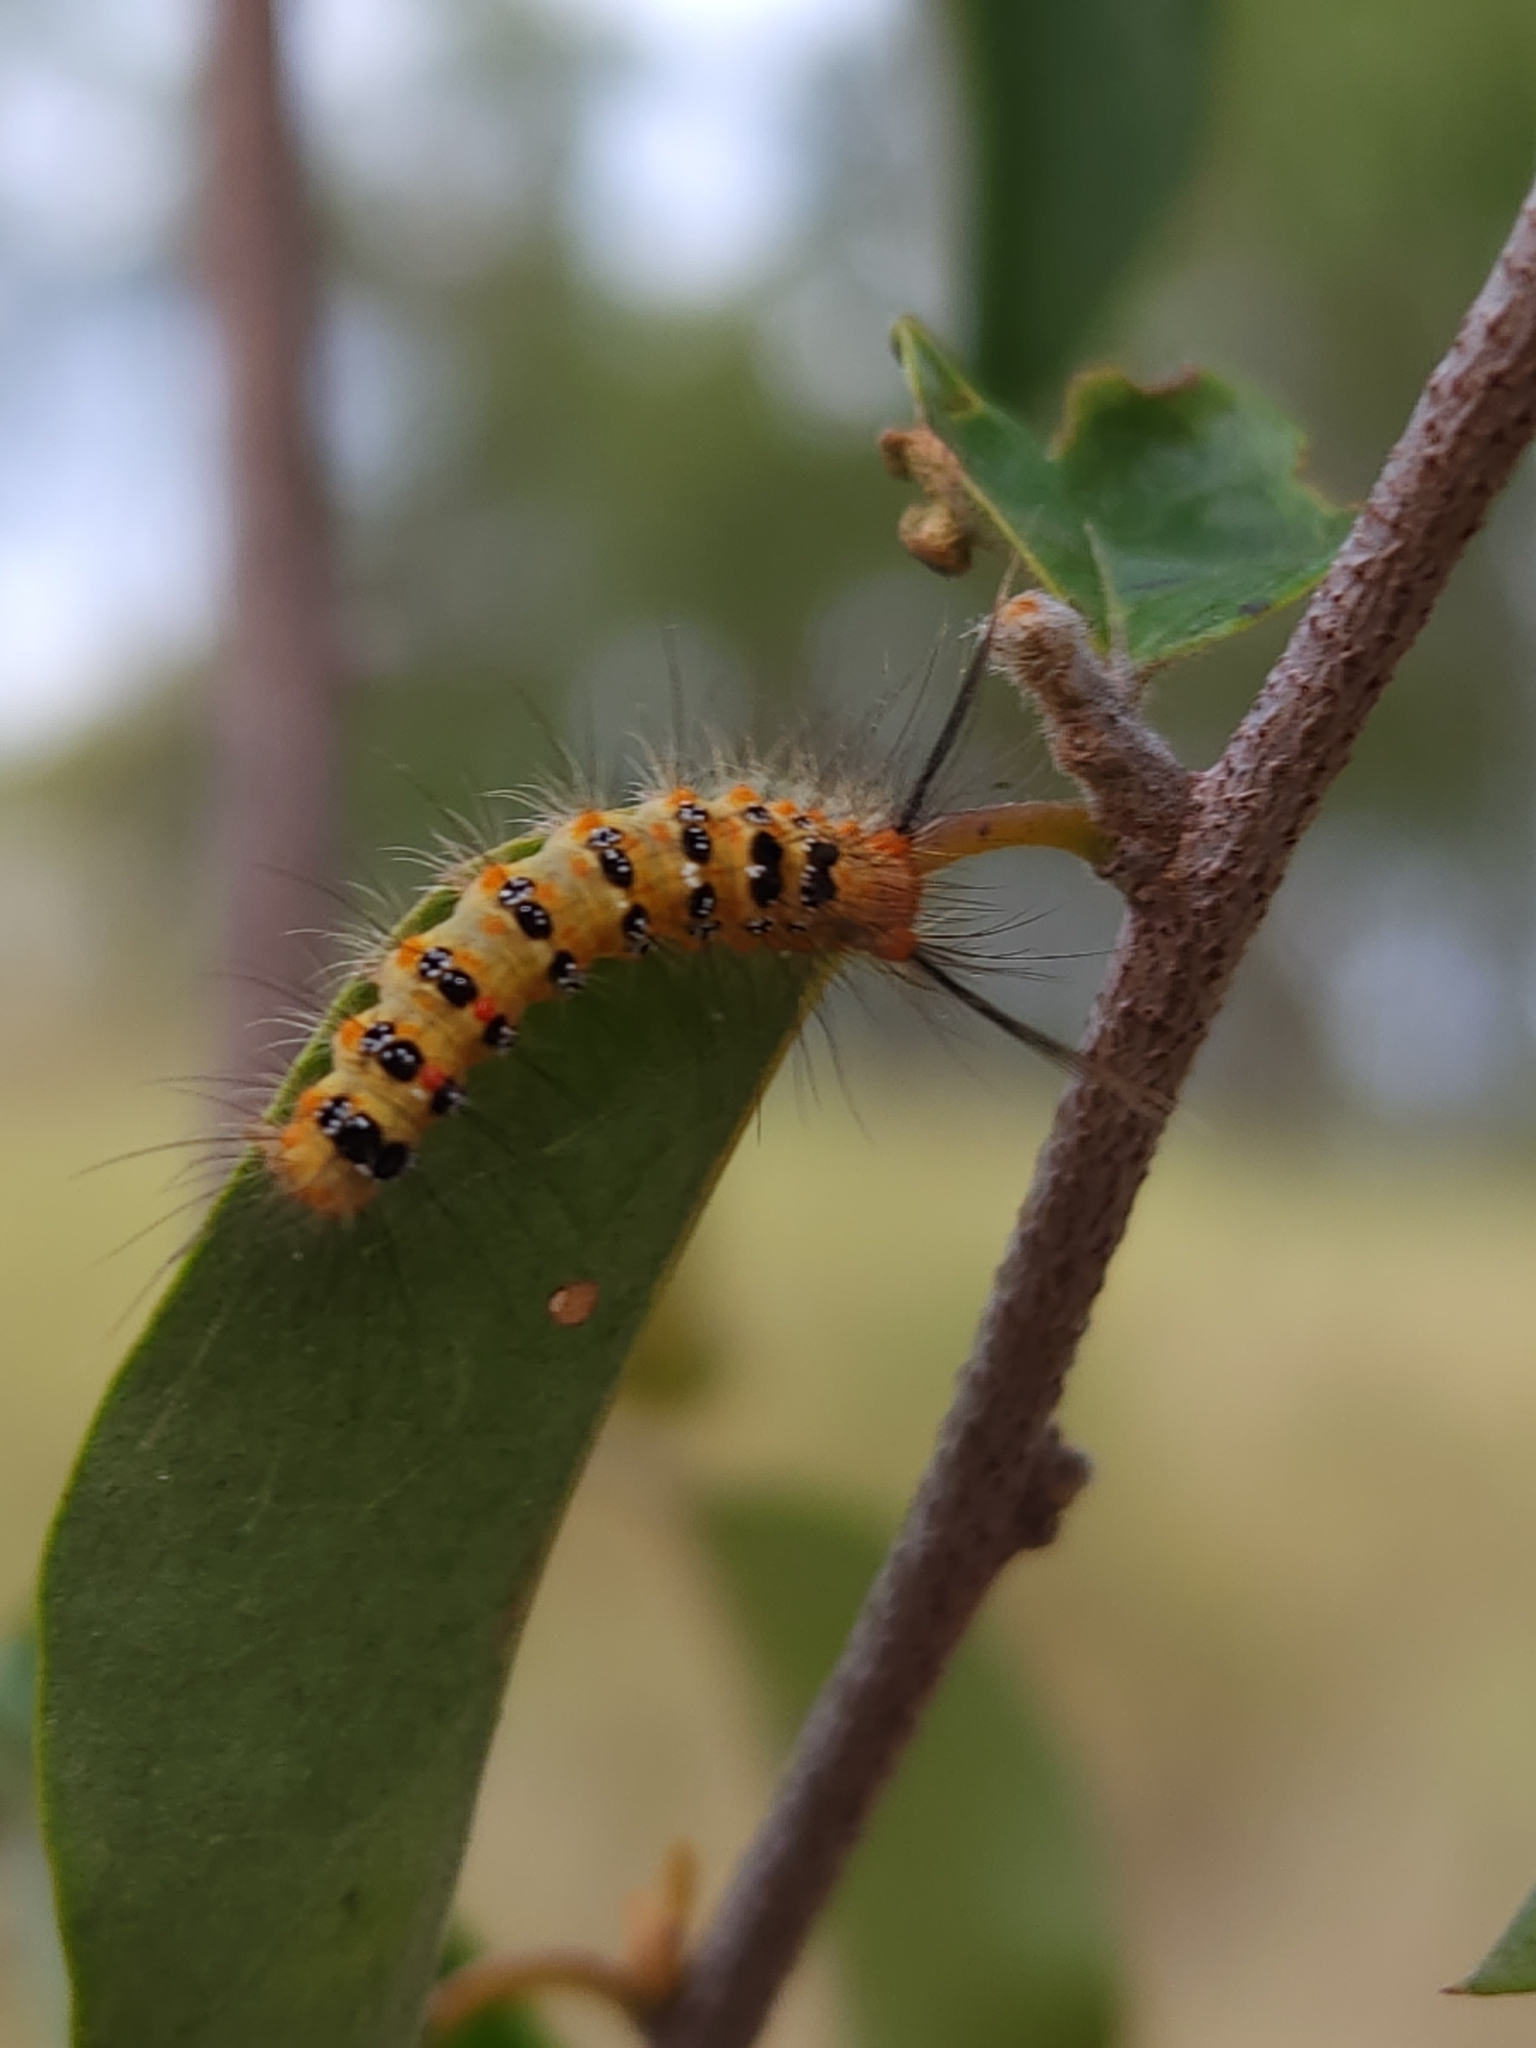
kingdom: Animalia
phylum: Arthropoda
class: Insecta
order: Lepidoptera
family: Erebidae
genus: Euproctis
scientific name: Euproctis aliena
